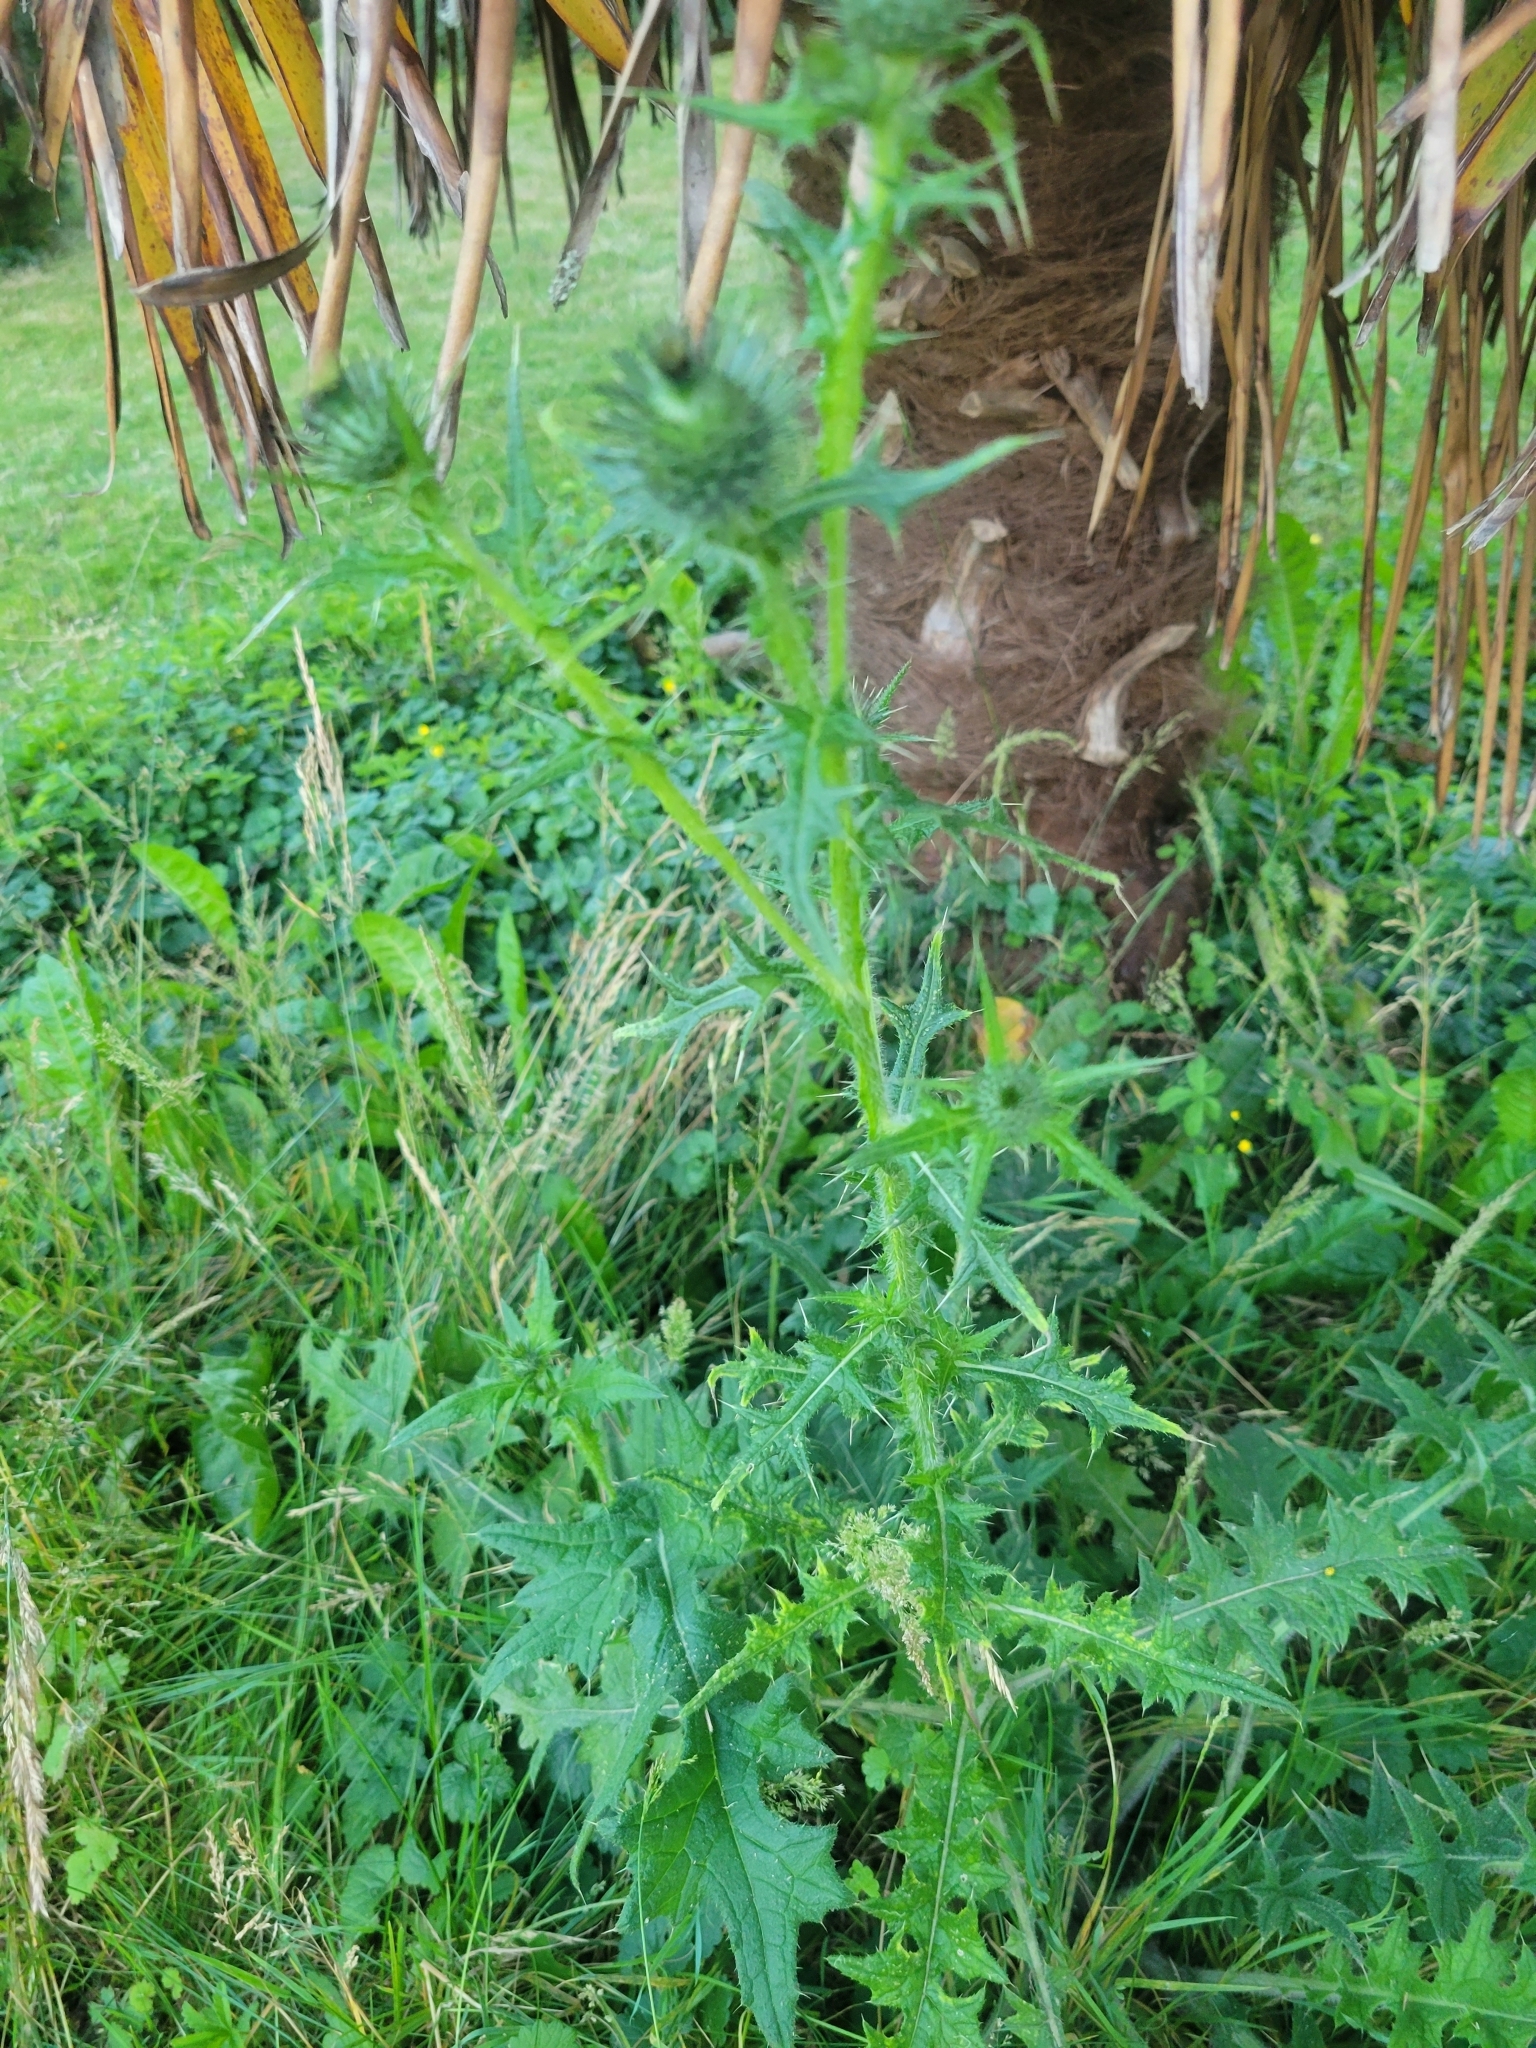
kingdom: Plantae
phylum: Tracheophyta
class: Magnoliopsida
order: Asterales
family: Asteraceae
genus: Cirsium
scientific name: Cirsium vulgare
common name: Bull thistle
